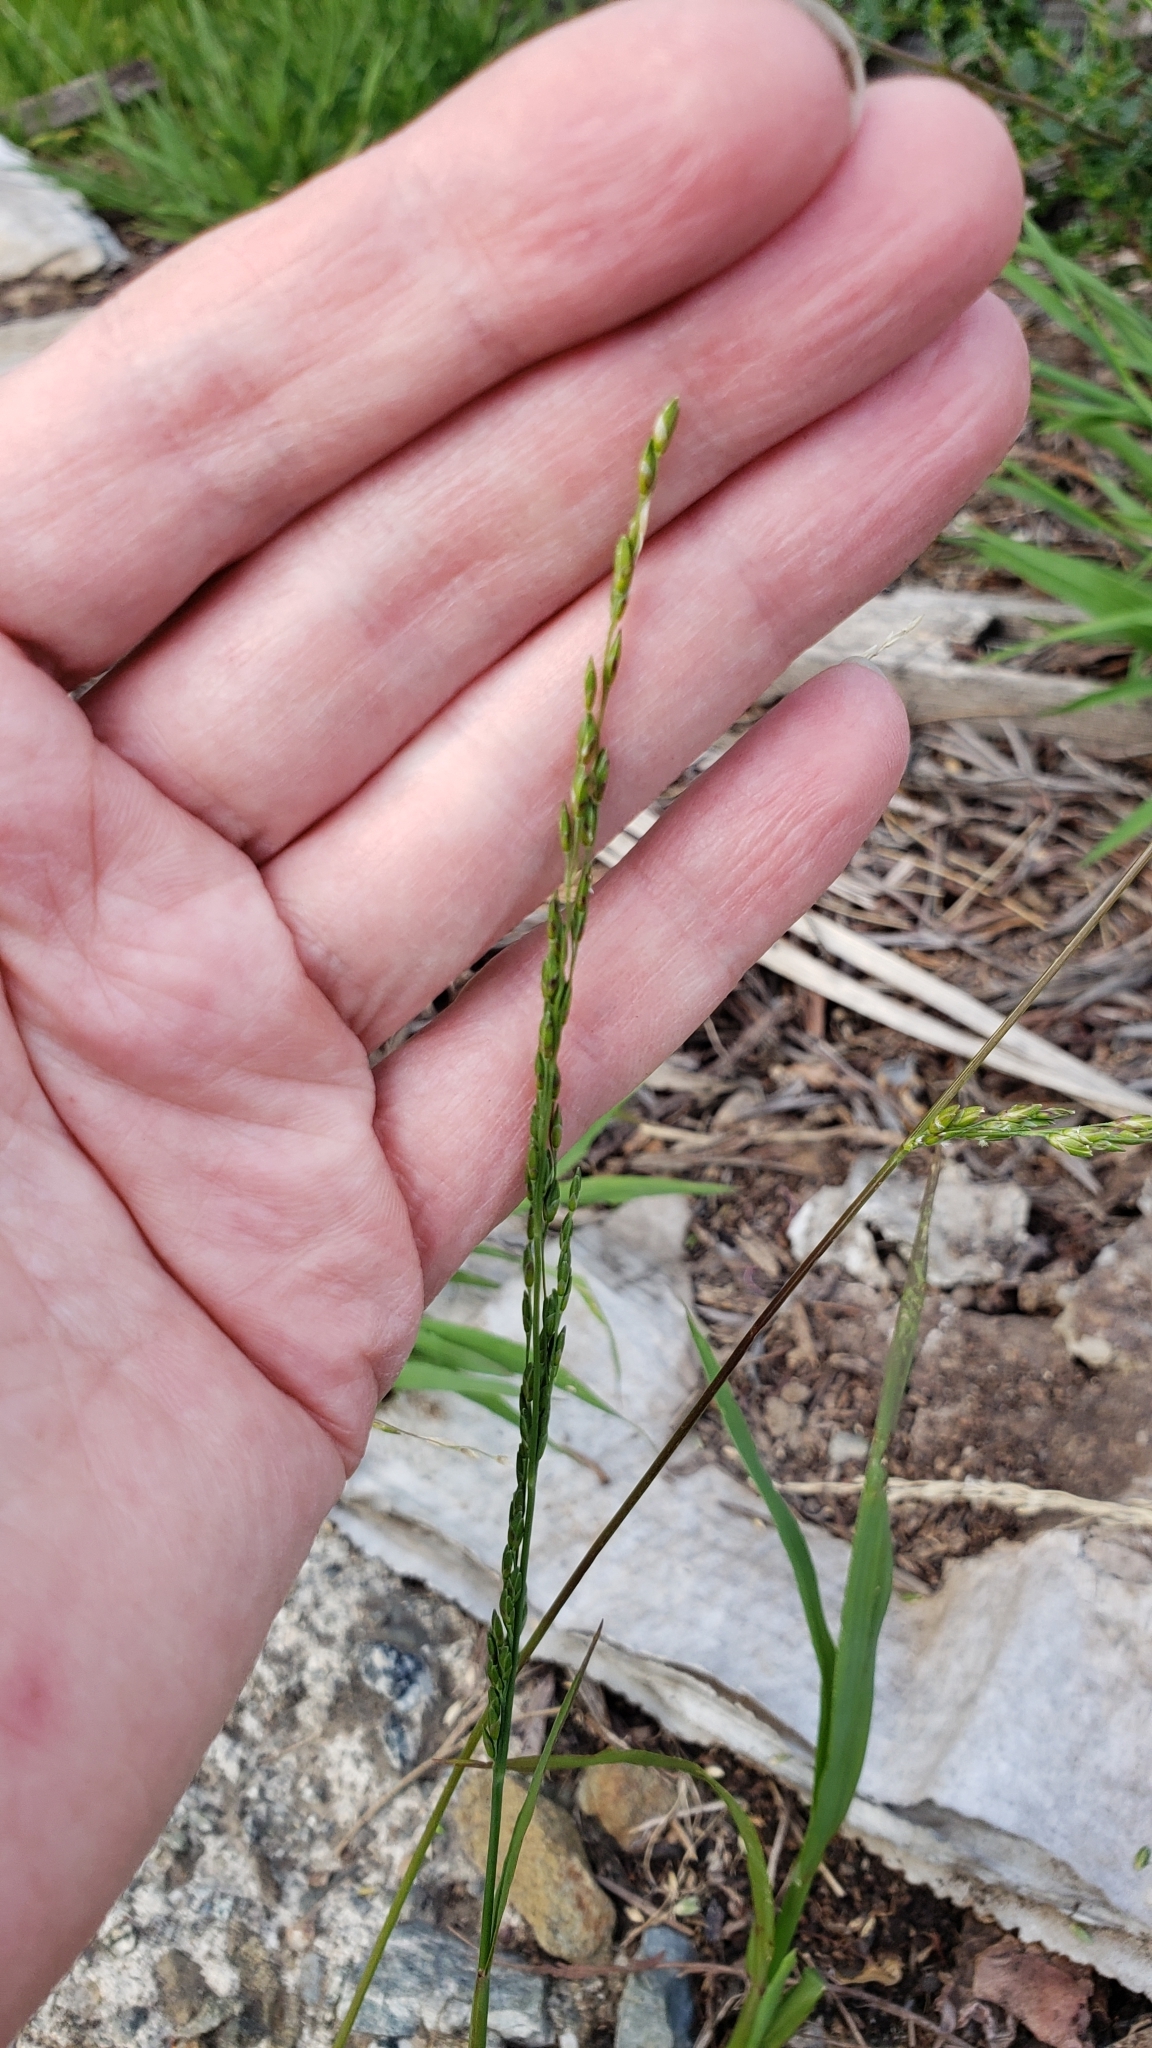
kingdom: Plantae
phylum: Tracheophyta
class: Liliopsida
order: Poales
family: Poaceae
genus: Ehrharta
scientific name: Ehrharta erecta
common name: Panic veldtgrass
